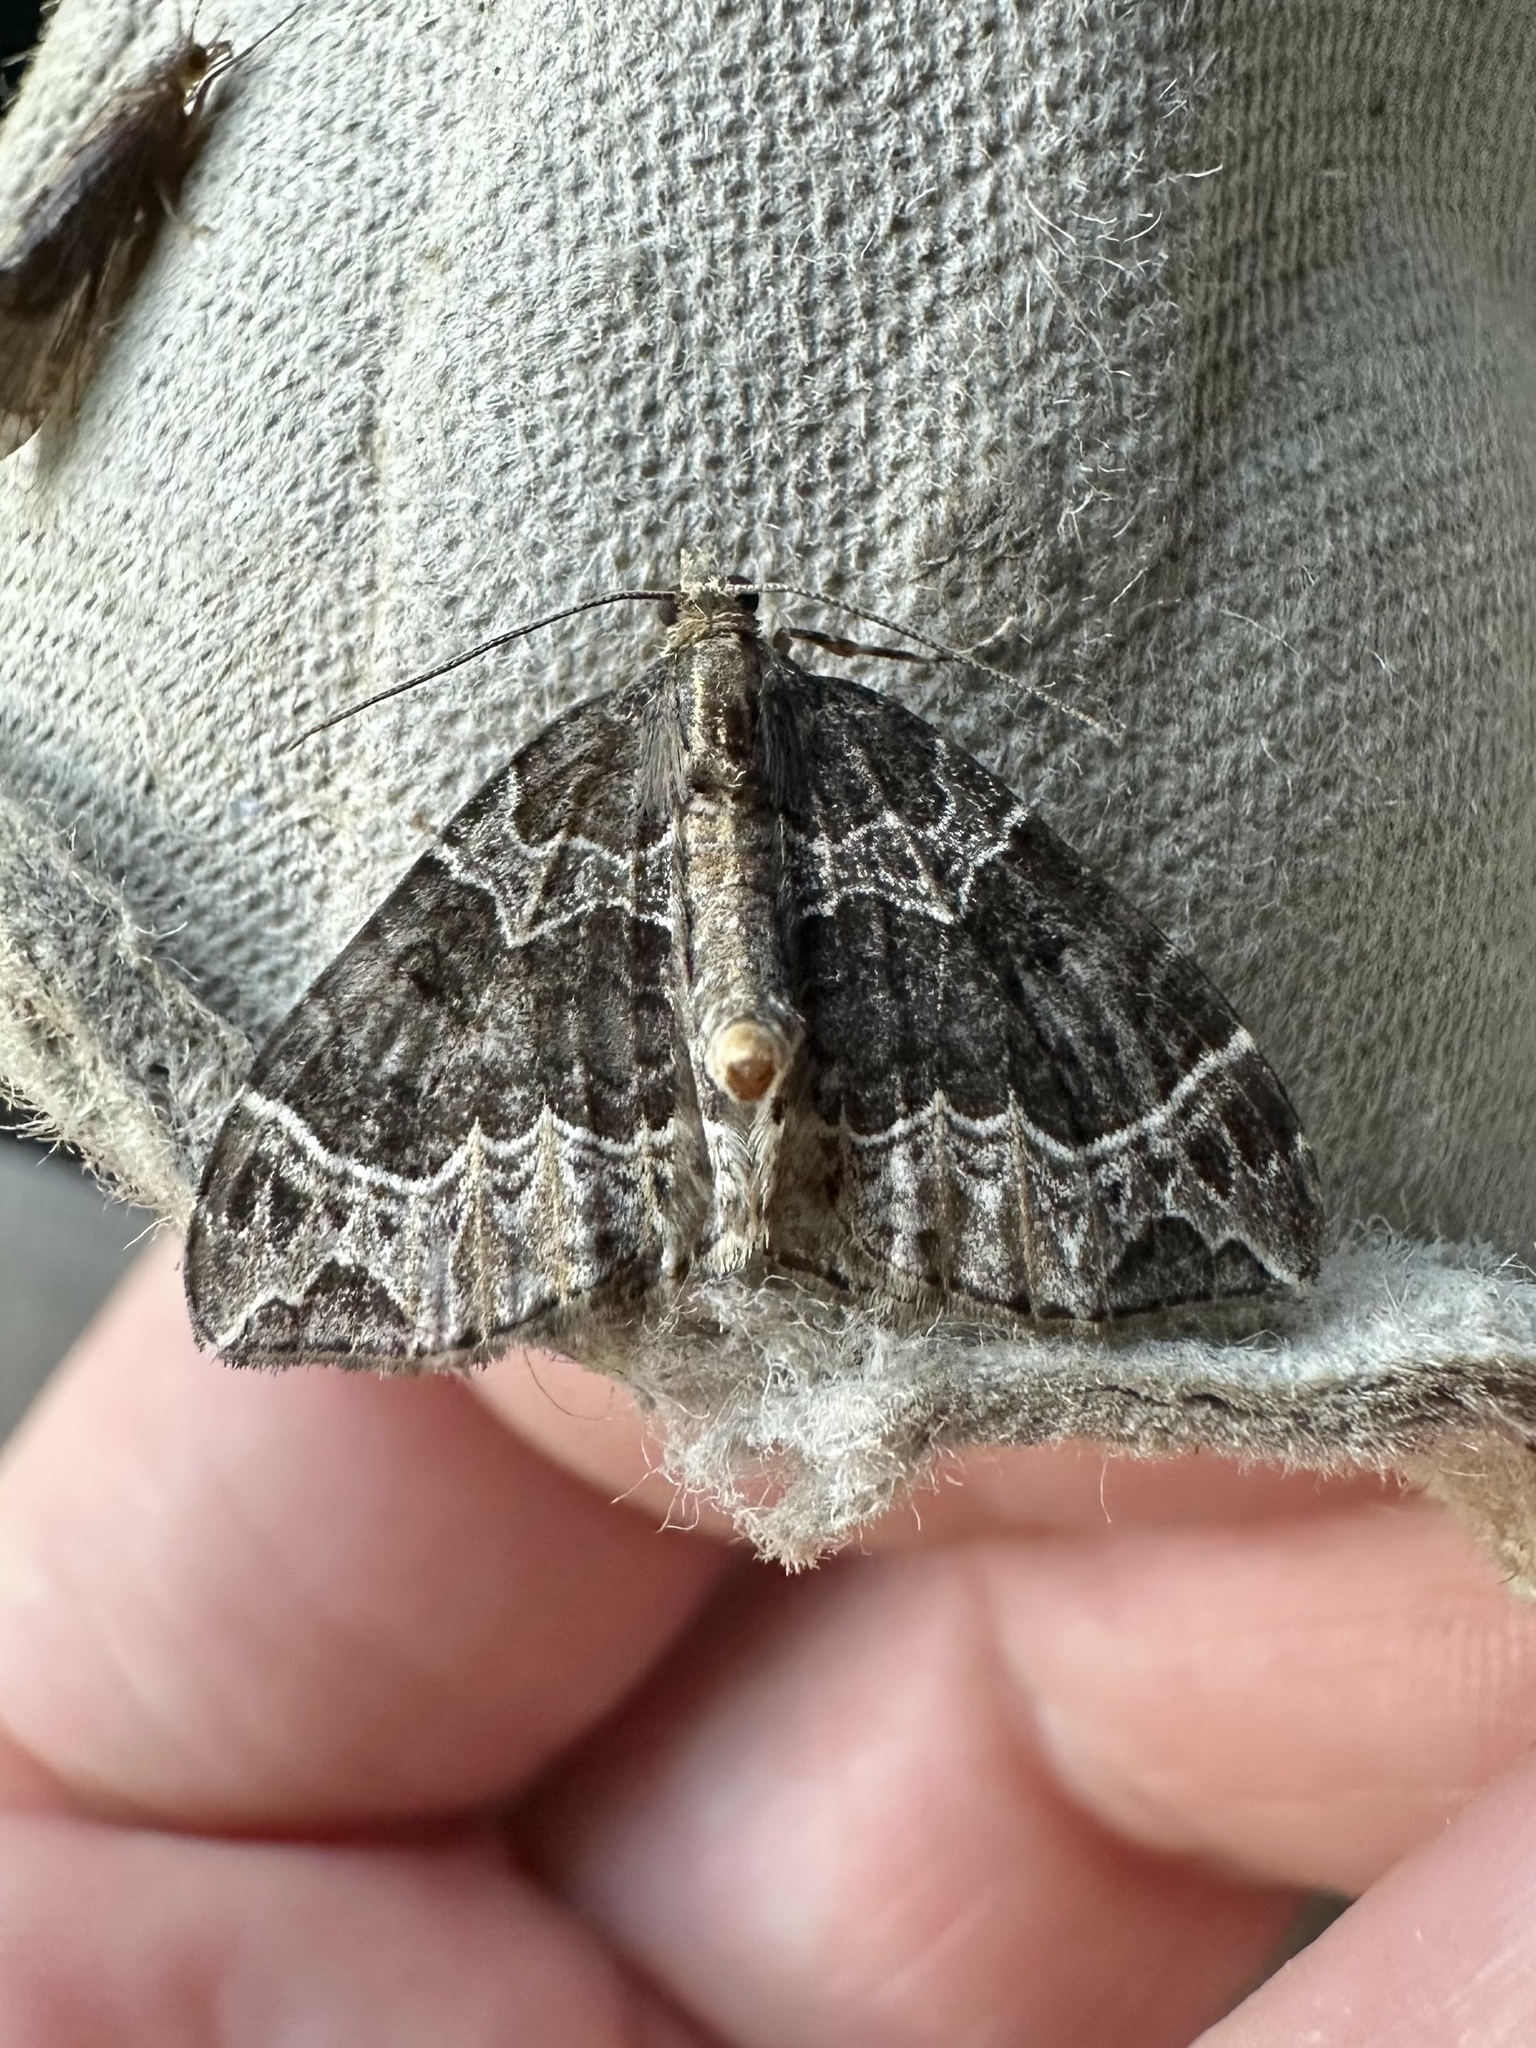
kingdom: Animalia
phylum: Arthropoda
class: Insecta
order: Lepidoptera
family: Geometridae
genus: Ecliptopera
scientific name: Ecliptopera silaceata
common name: Small phoenix
